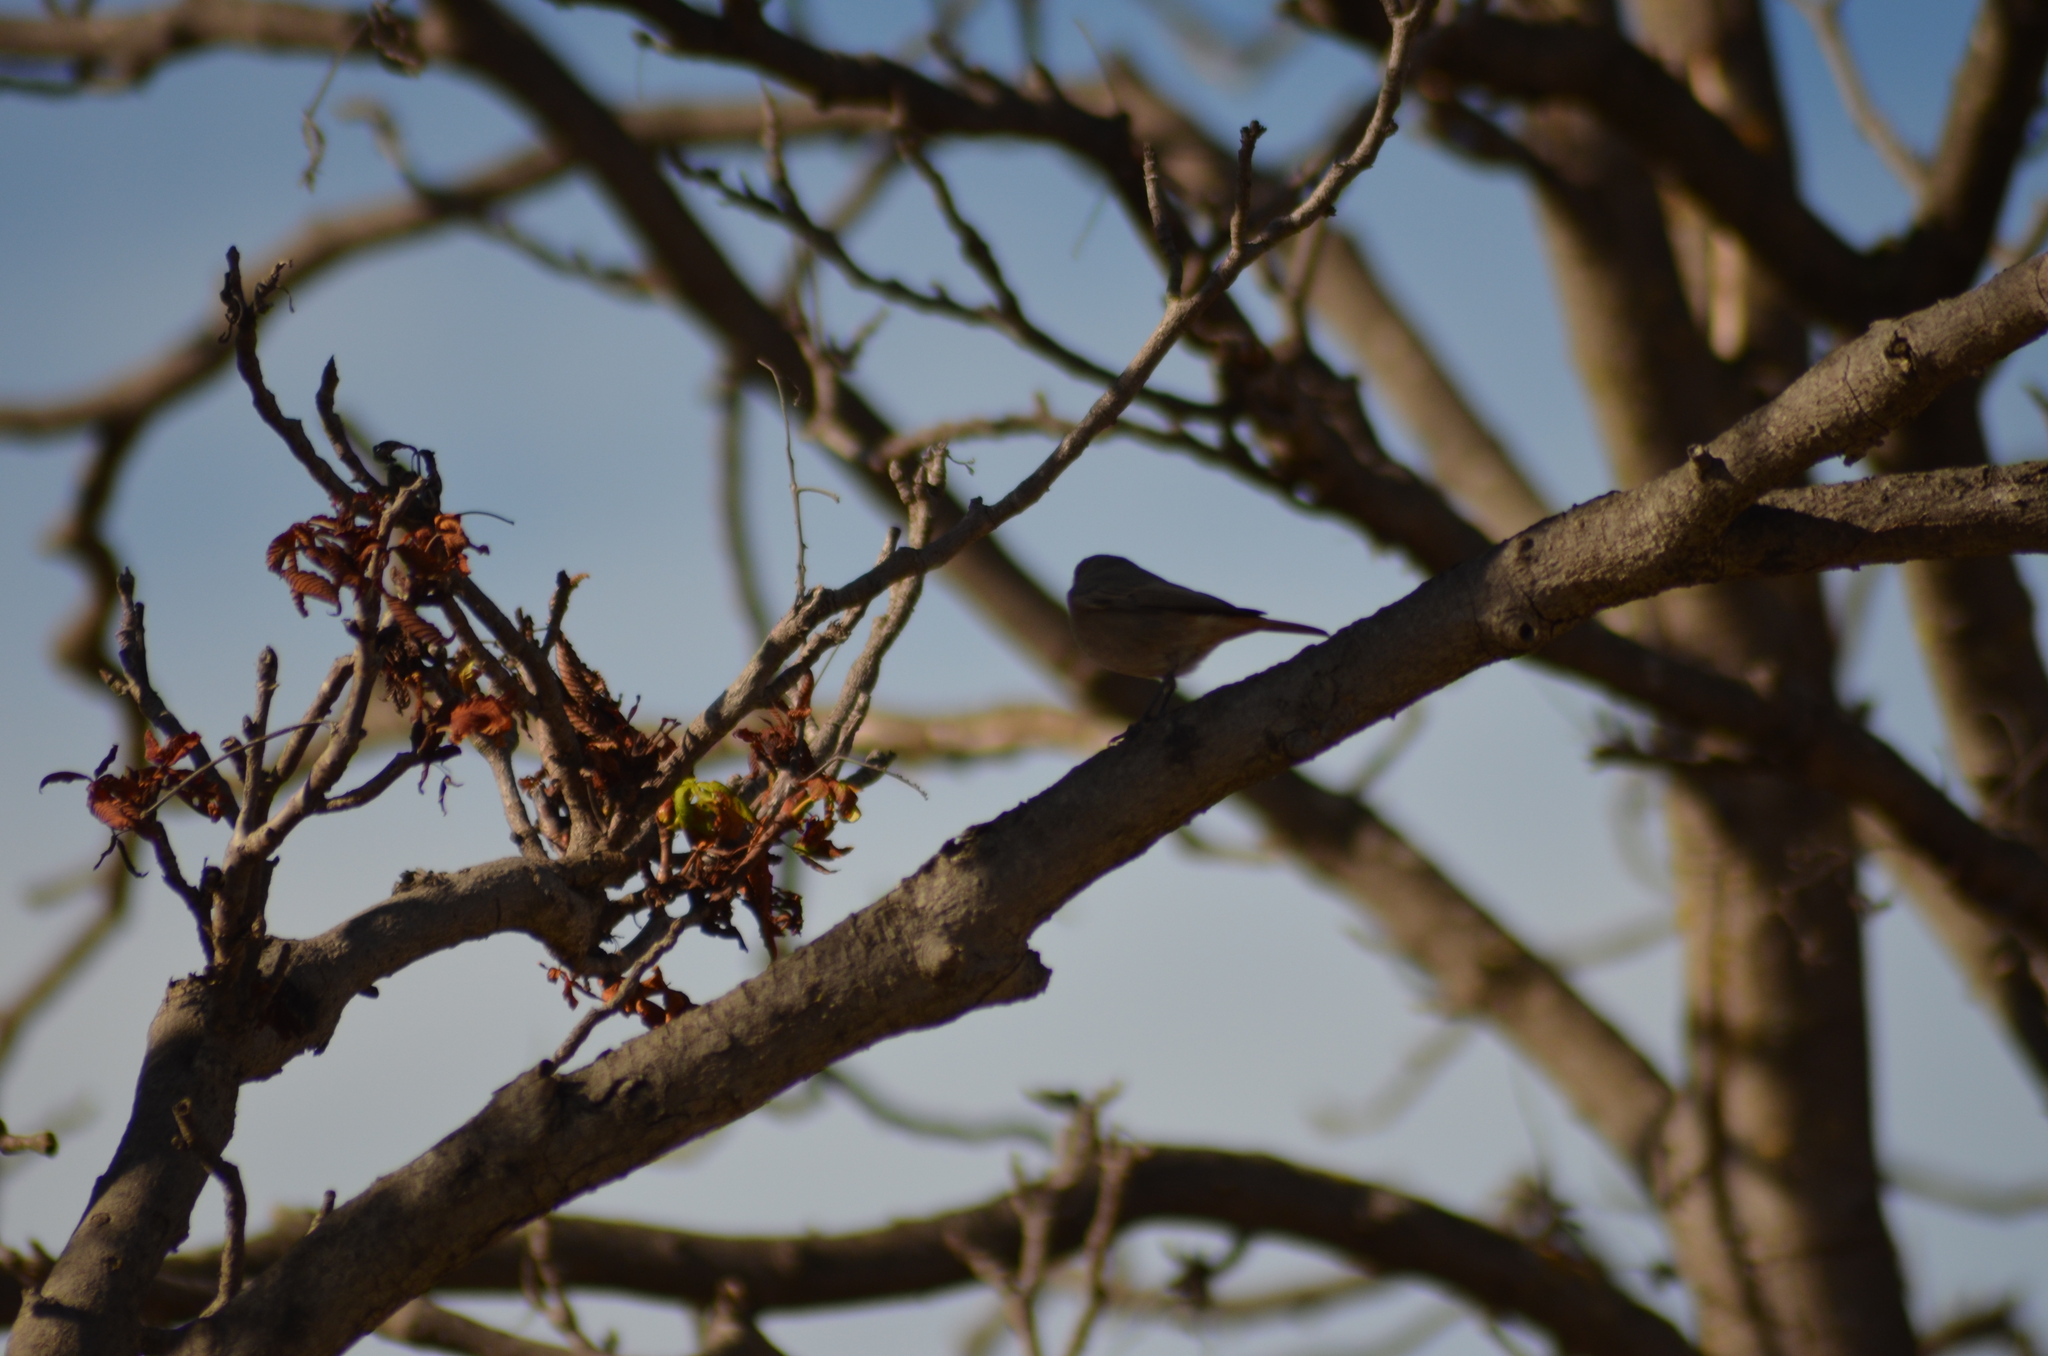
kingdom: Animalia
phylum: Chordata
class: Aves
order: Passeriformes
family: Muscicapidae
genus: Phoenicurus
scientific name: Phoenicurus ochruros
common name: Black redstart
